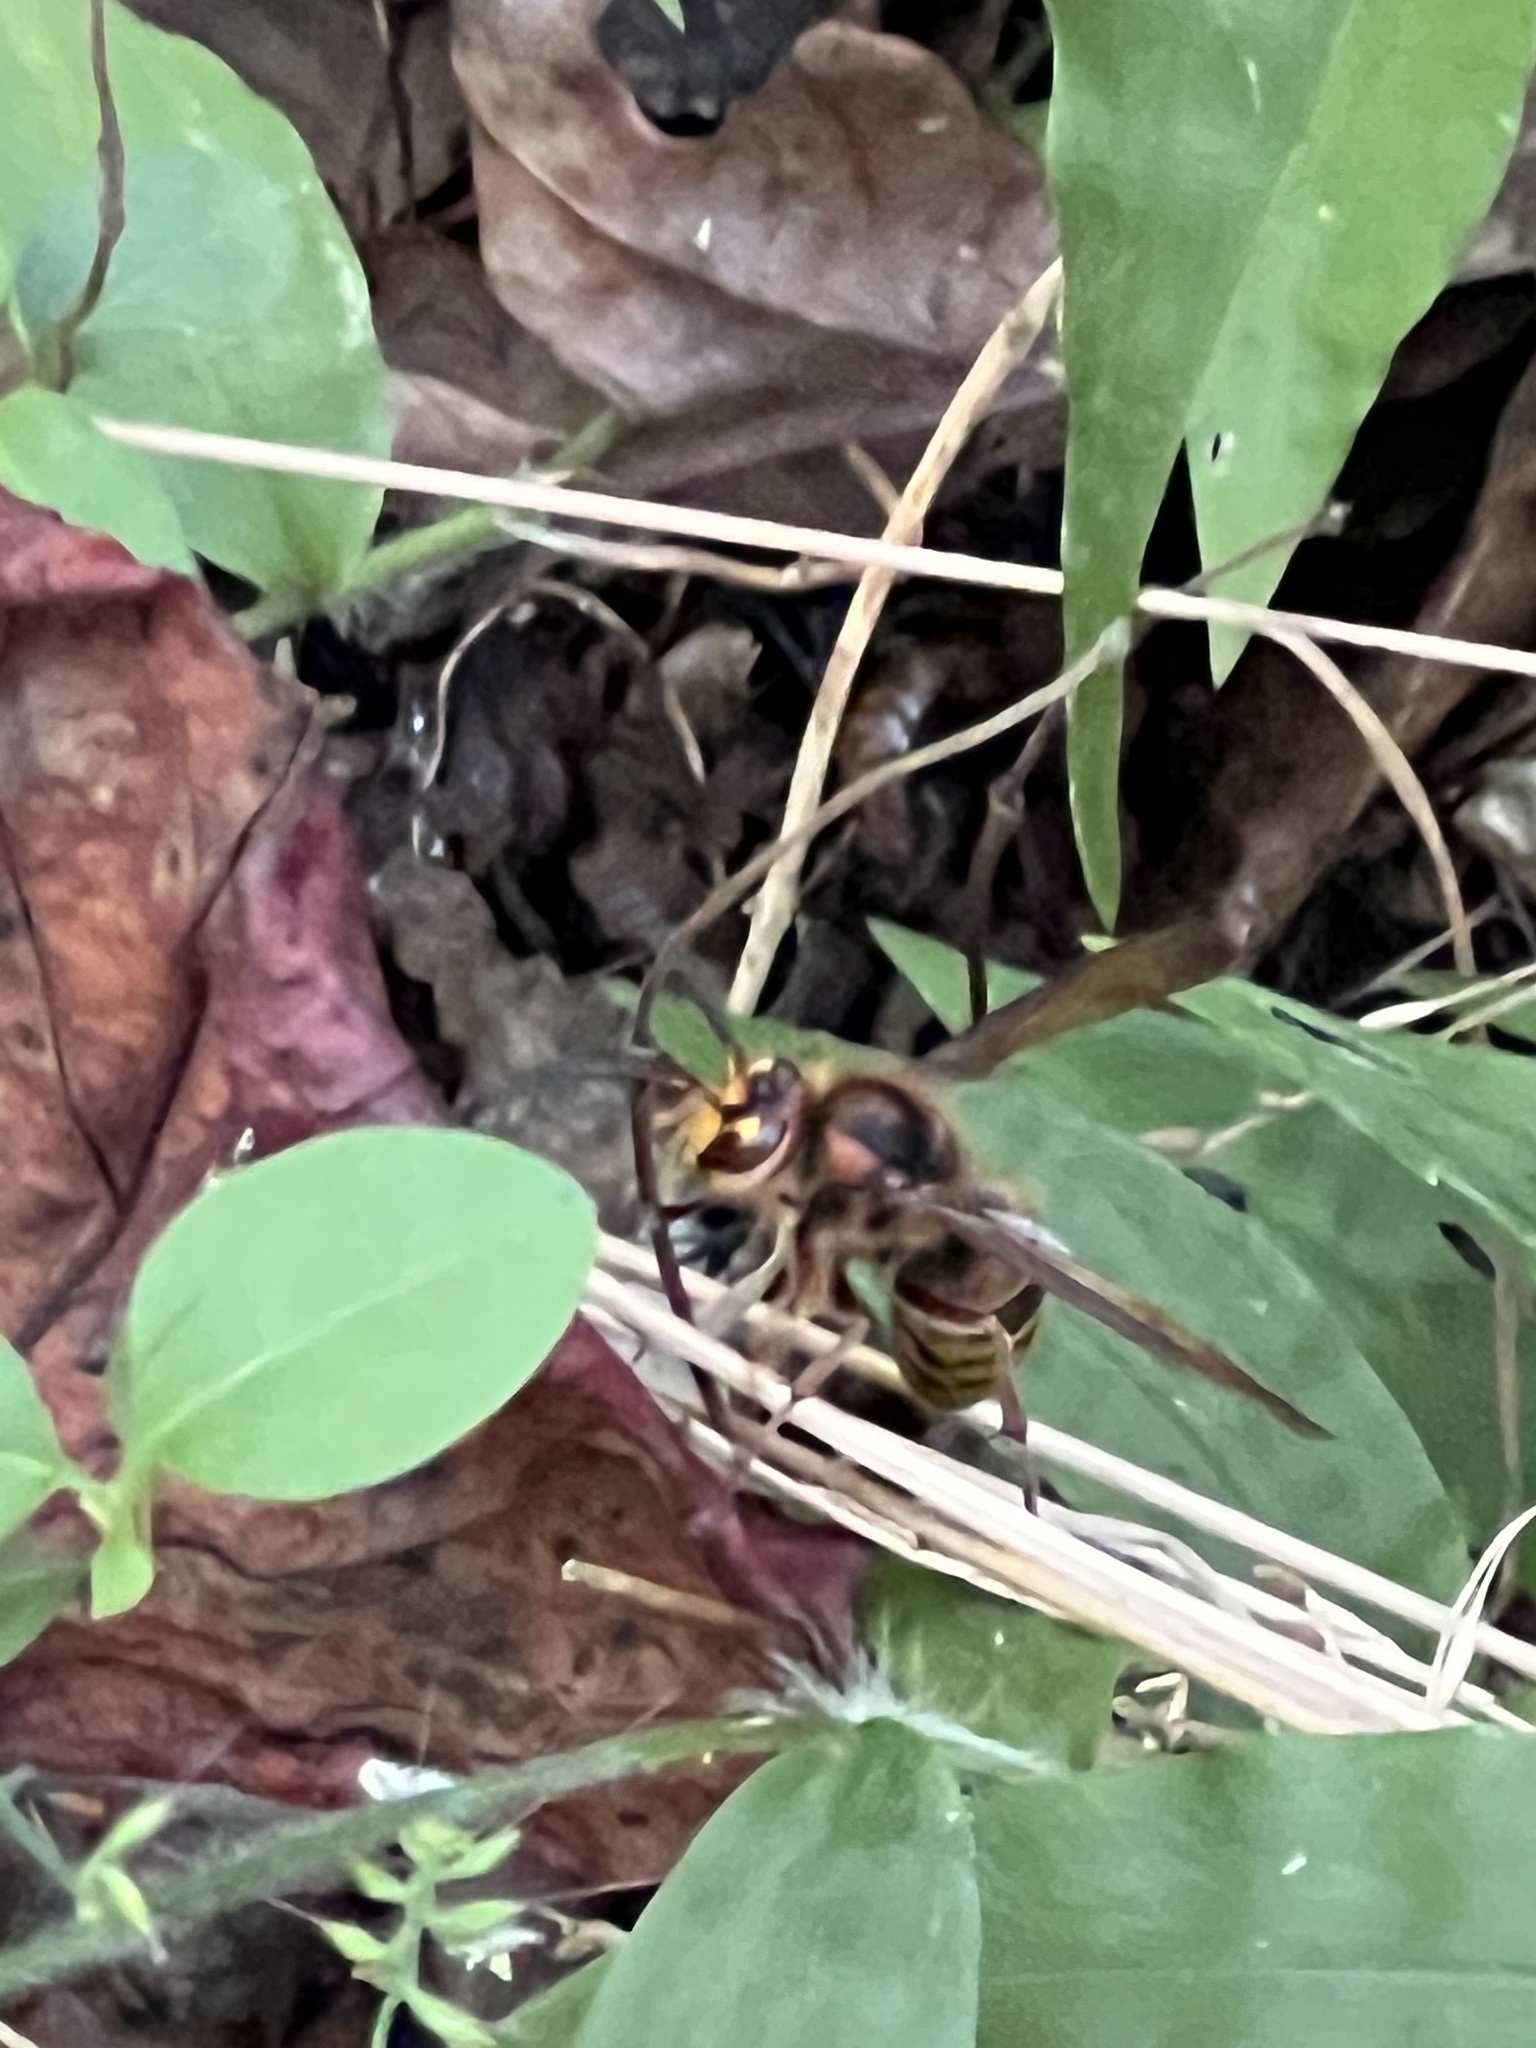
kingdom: Animalia
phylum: Arthropoda
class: Insecta
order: Hymenoptera
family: Vespidae
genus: Vespa
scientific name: Vespa crabro
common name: Hornet
